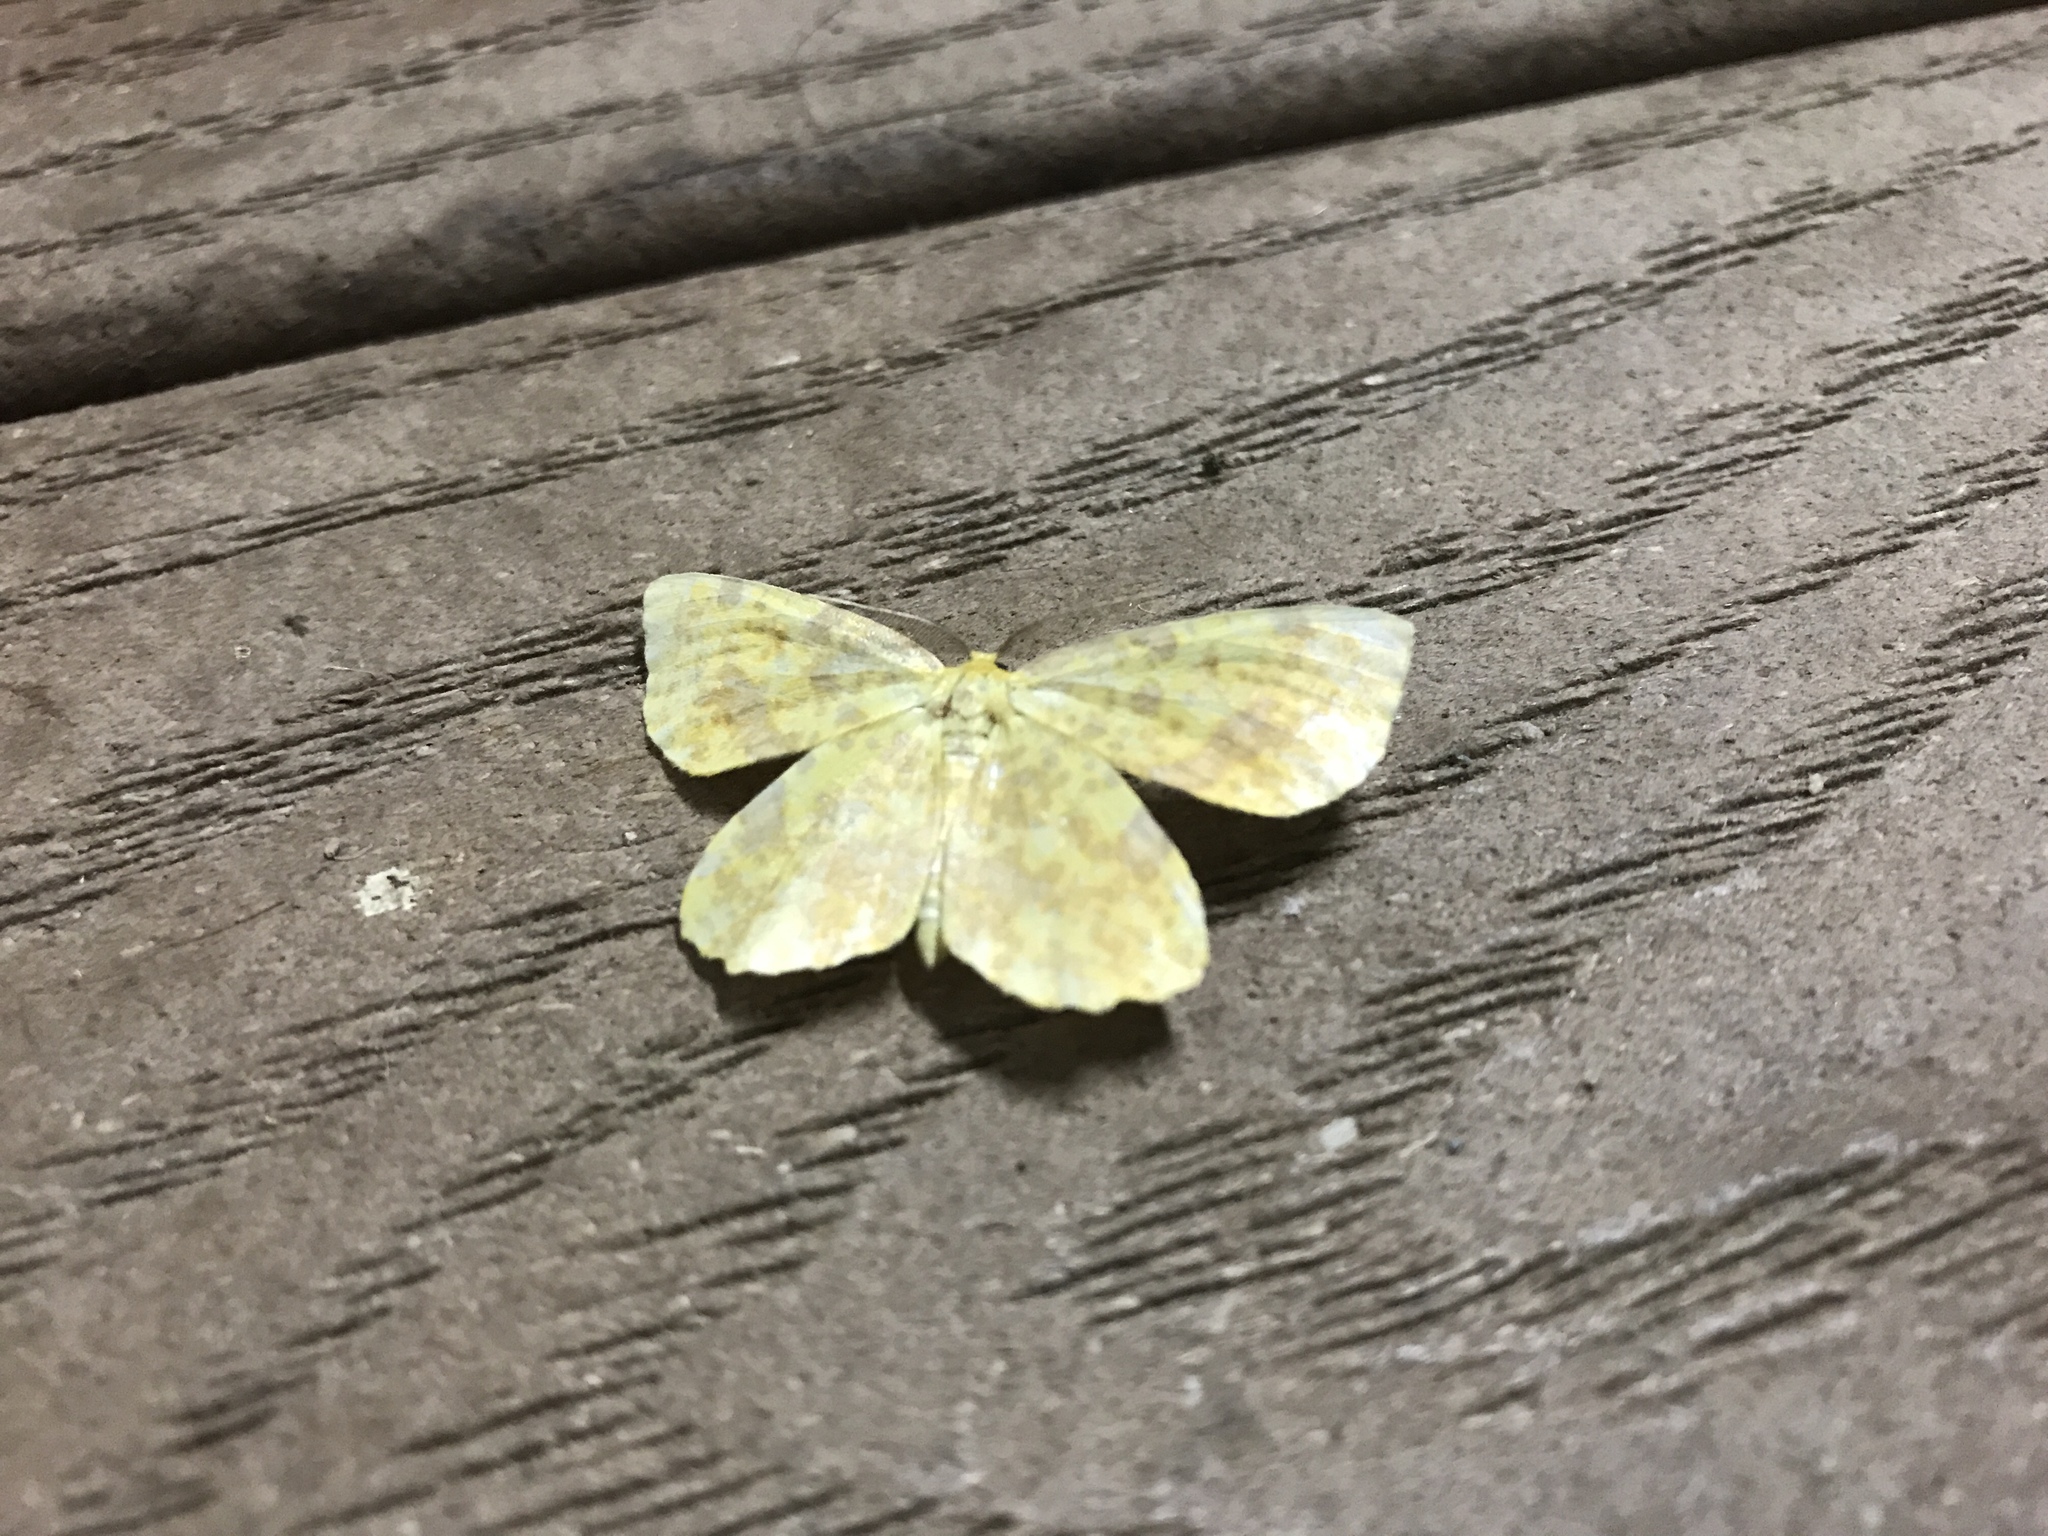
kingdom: Animalia
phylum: Arthropoda
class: Insecta
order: Lepidoptera
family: Geometridae
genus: Xanthotype
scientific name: Xanthotype
